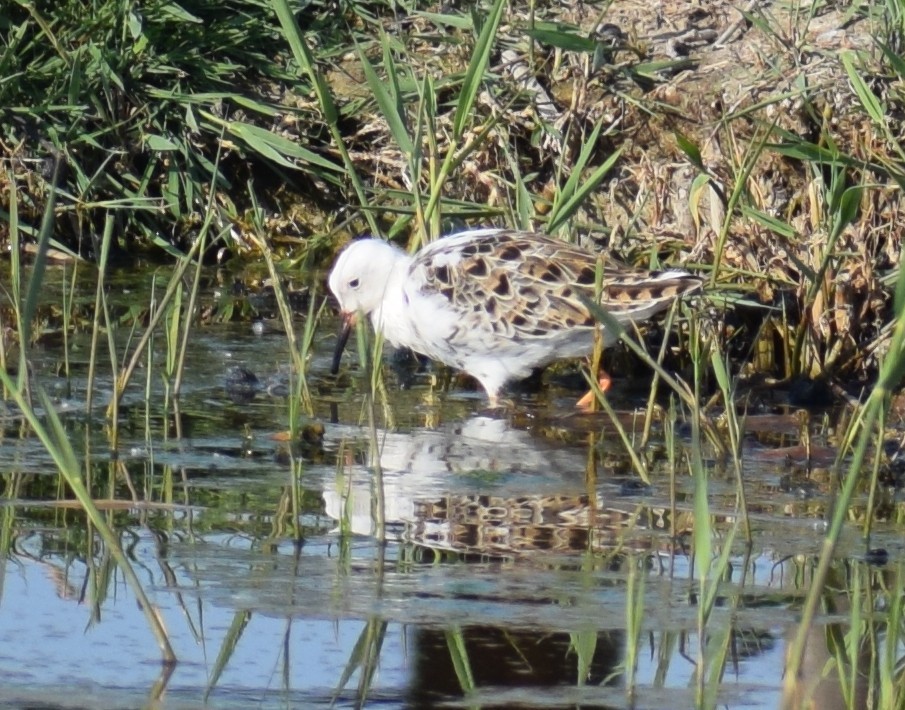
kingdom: Animalia
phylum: Chordata
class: Aves
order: Charadriiformes
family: Scolopacidae
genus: Calidris
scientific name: Calidris pugnax
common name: Ruff
